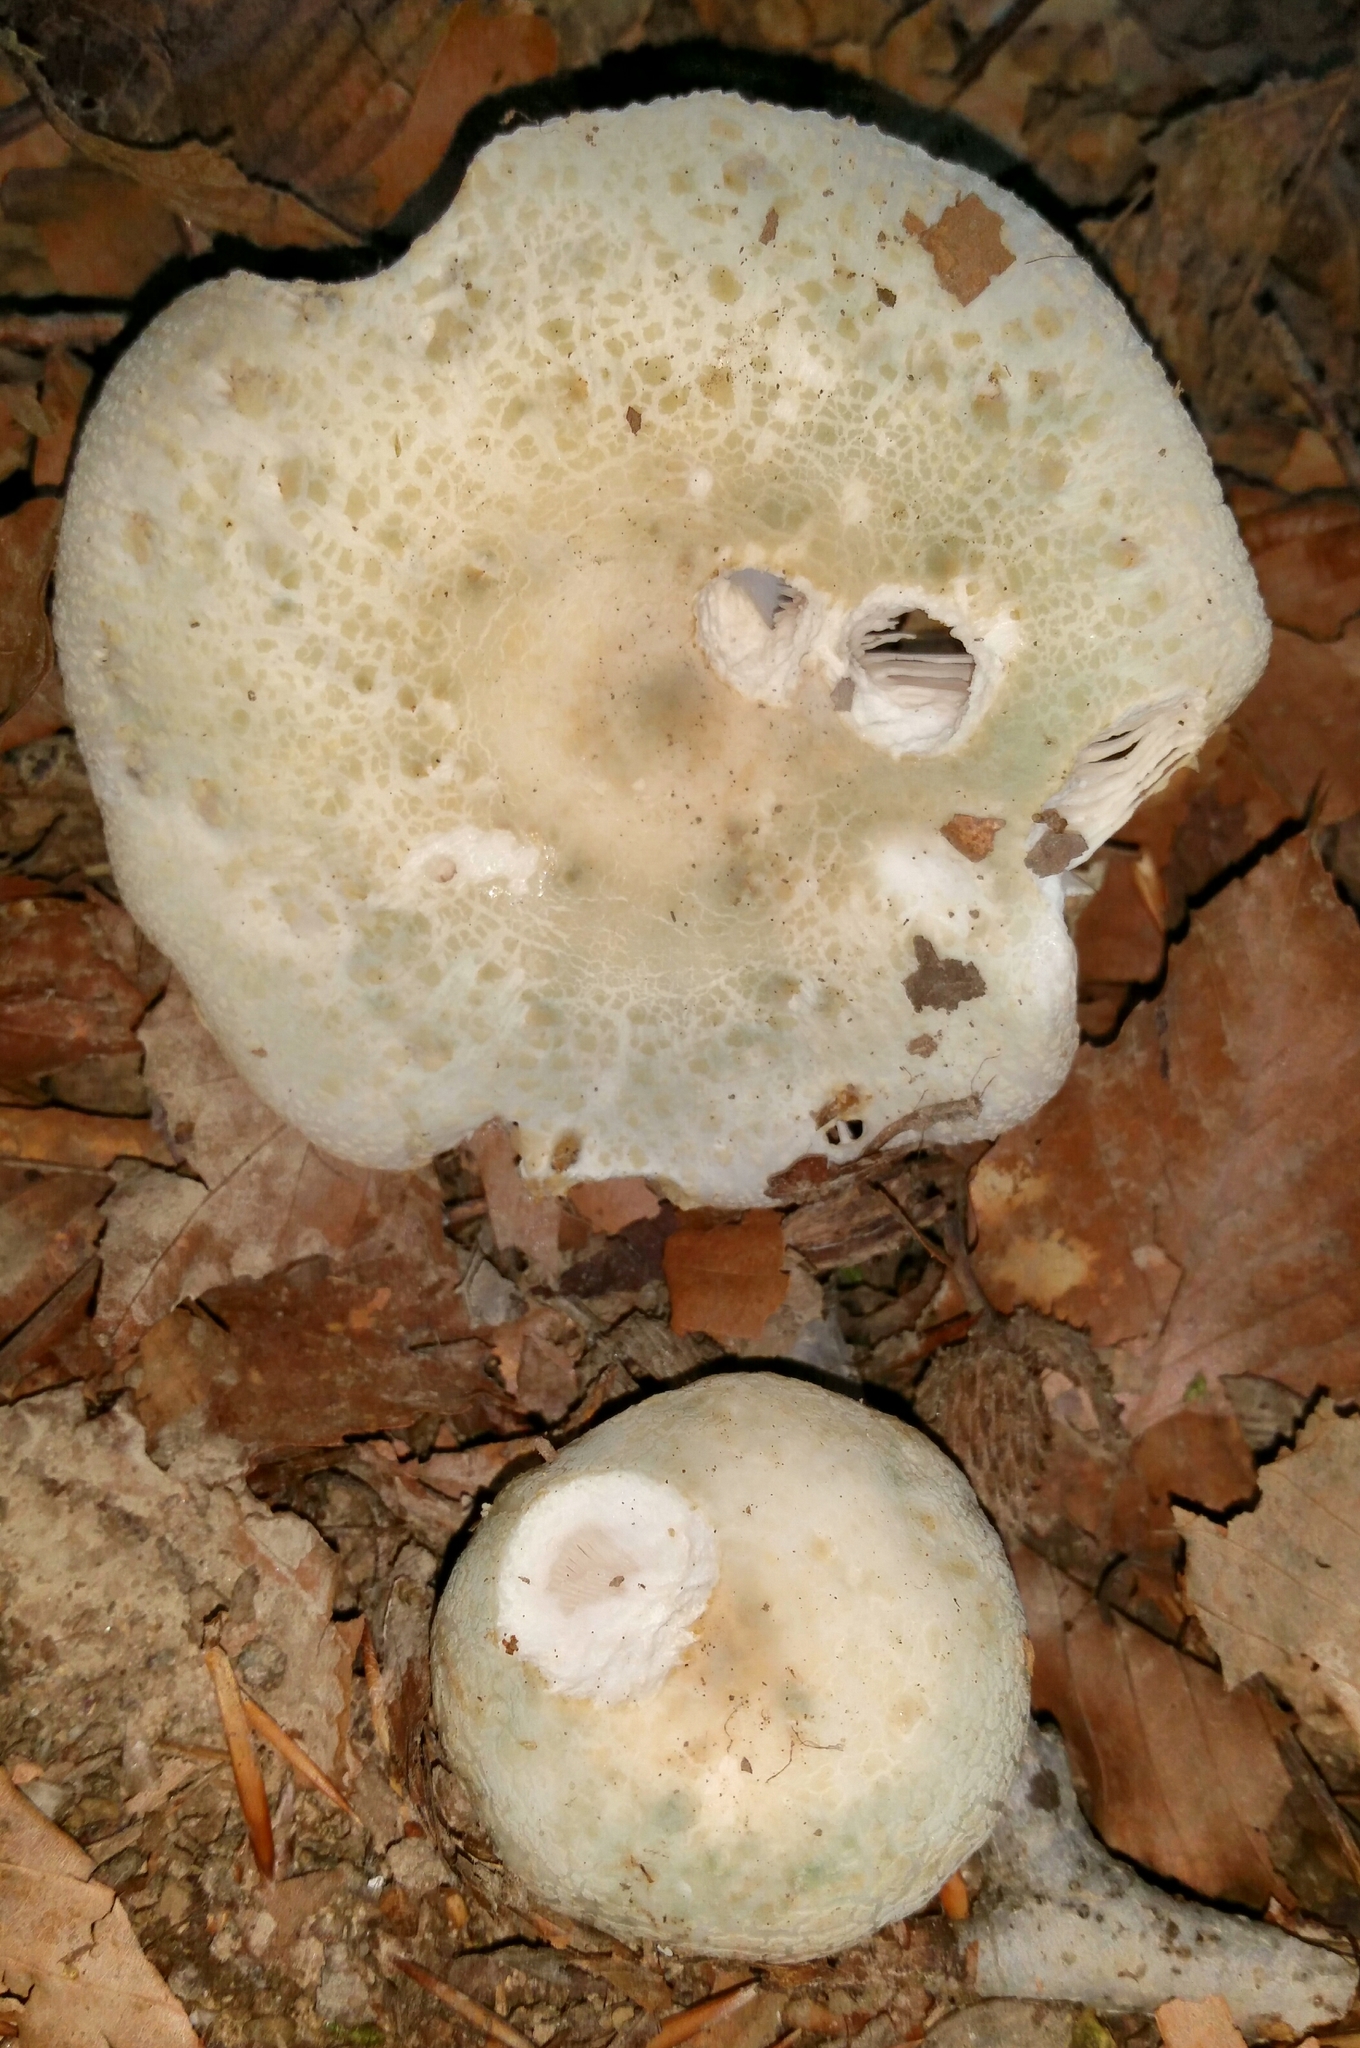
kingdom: Fungi
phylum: Basidiomycota
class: Agaricomycetes
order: Russulales
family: Russulaceae
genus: Russula
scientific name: Russula crustosa
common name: Green quilt russula
